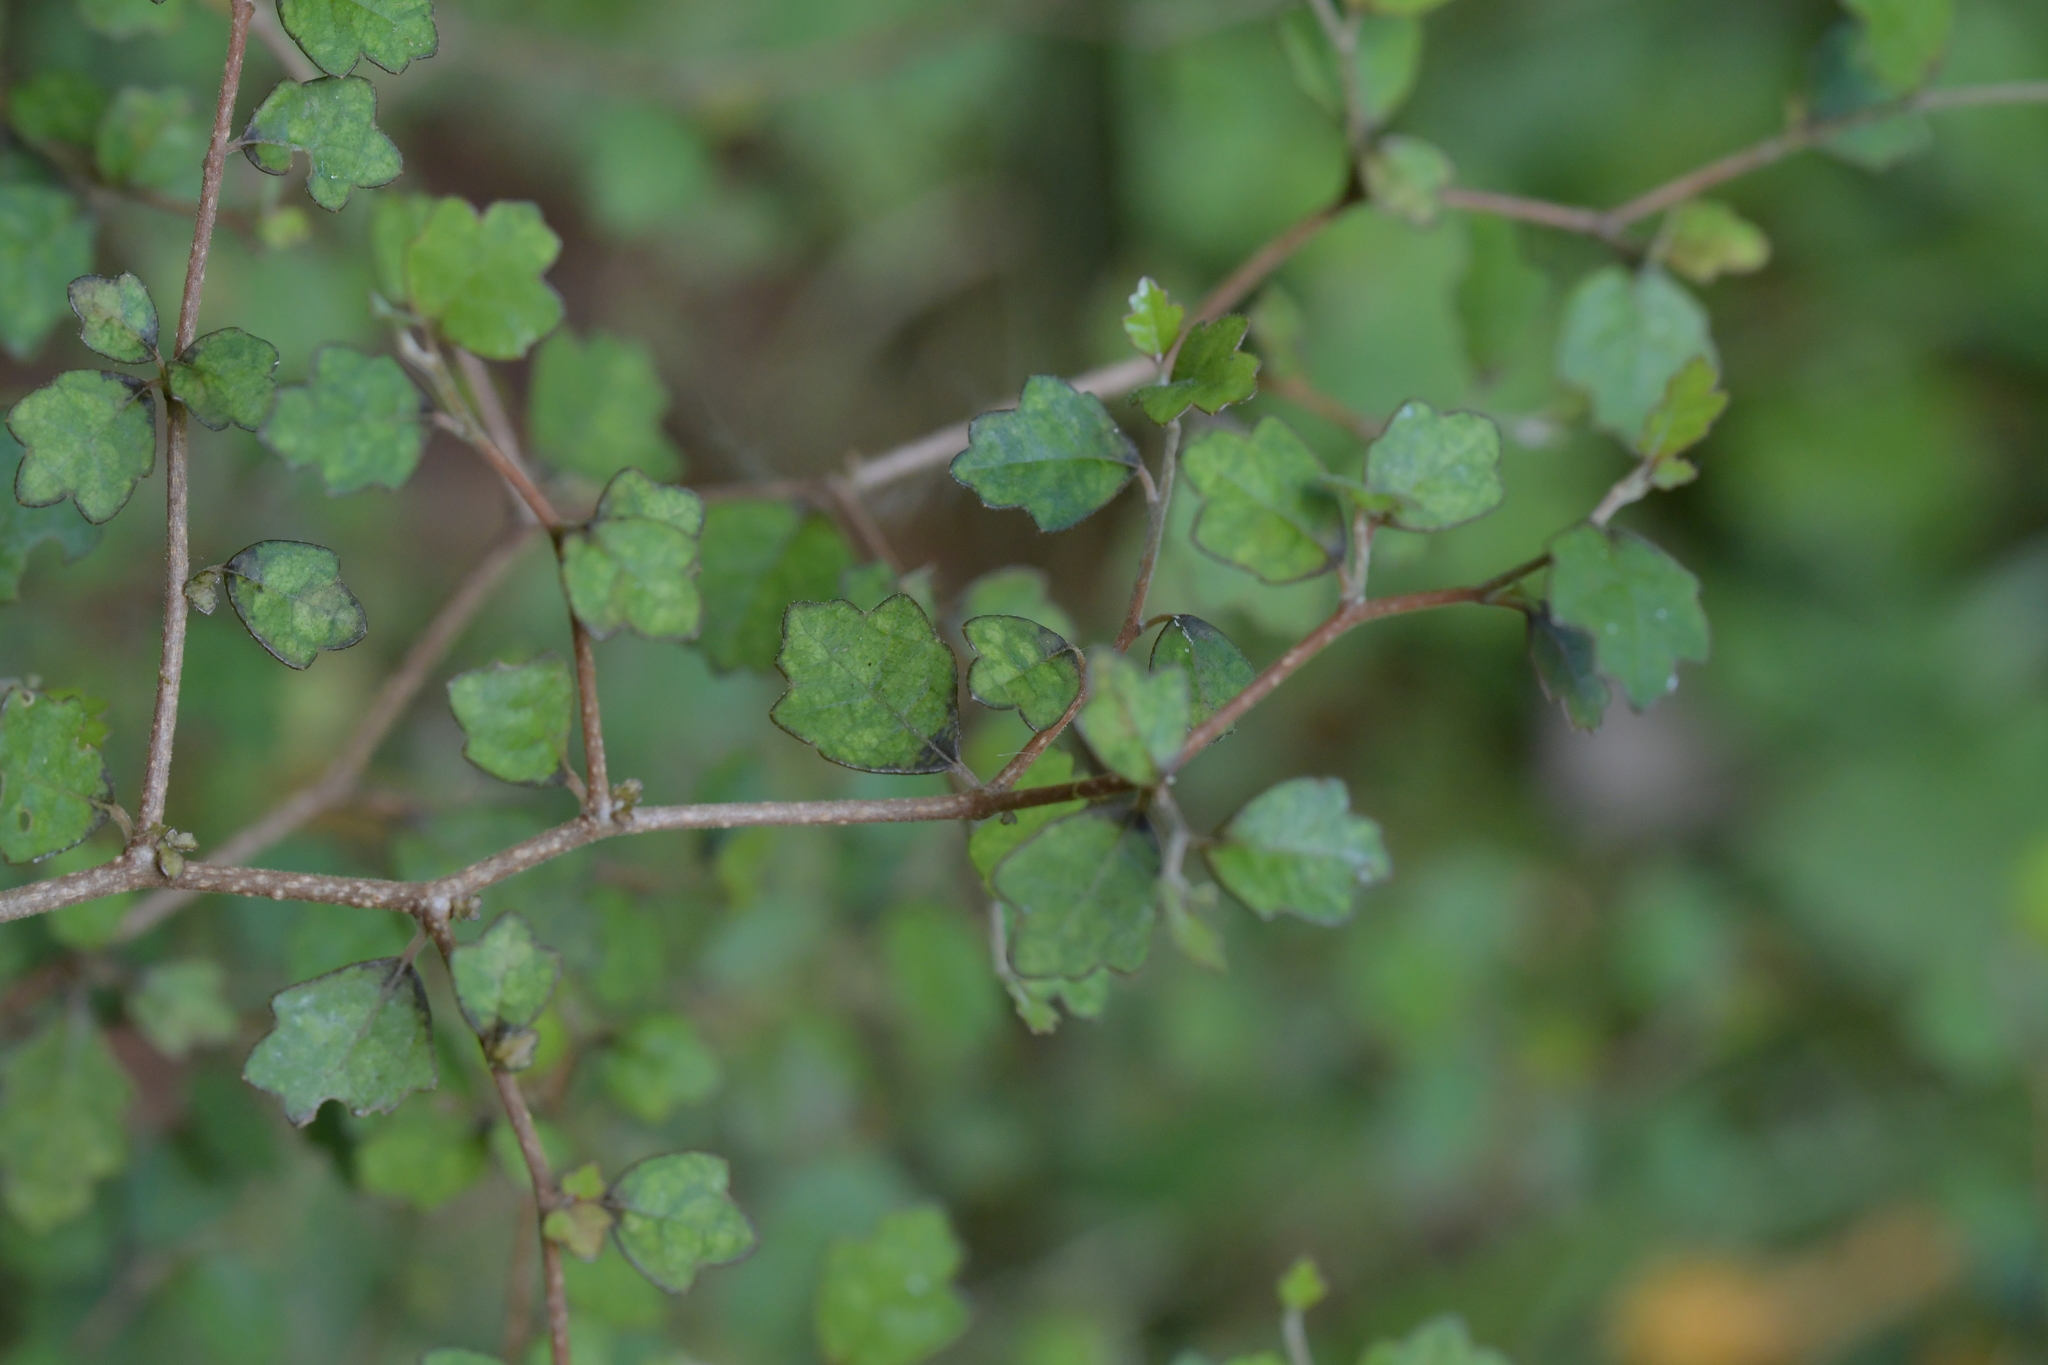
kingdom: Plantae
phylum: Tracheophyta
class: Magnoliopsida
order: Apiales
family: Pennantiaceae
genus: Pennantia
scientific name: Pennantia corymbosa
